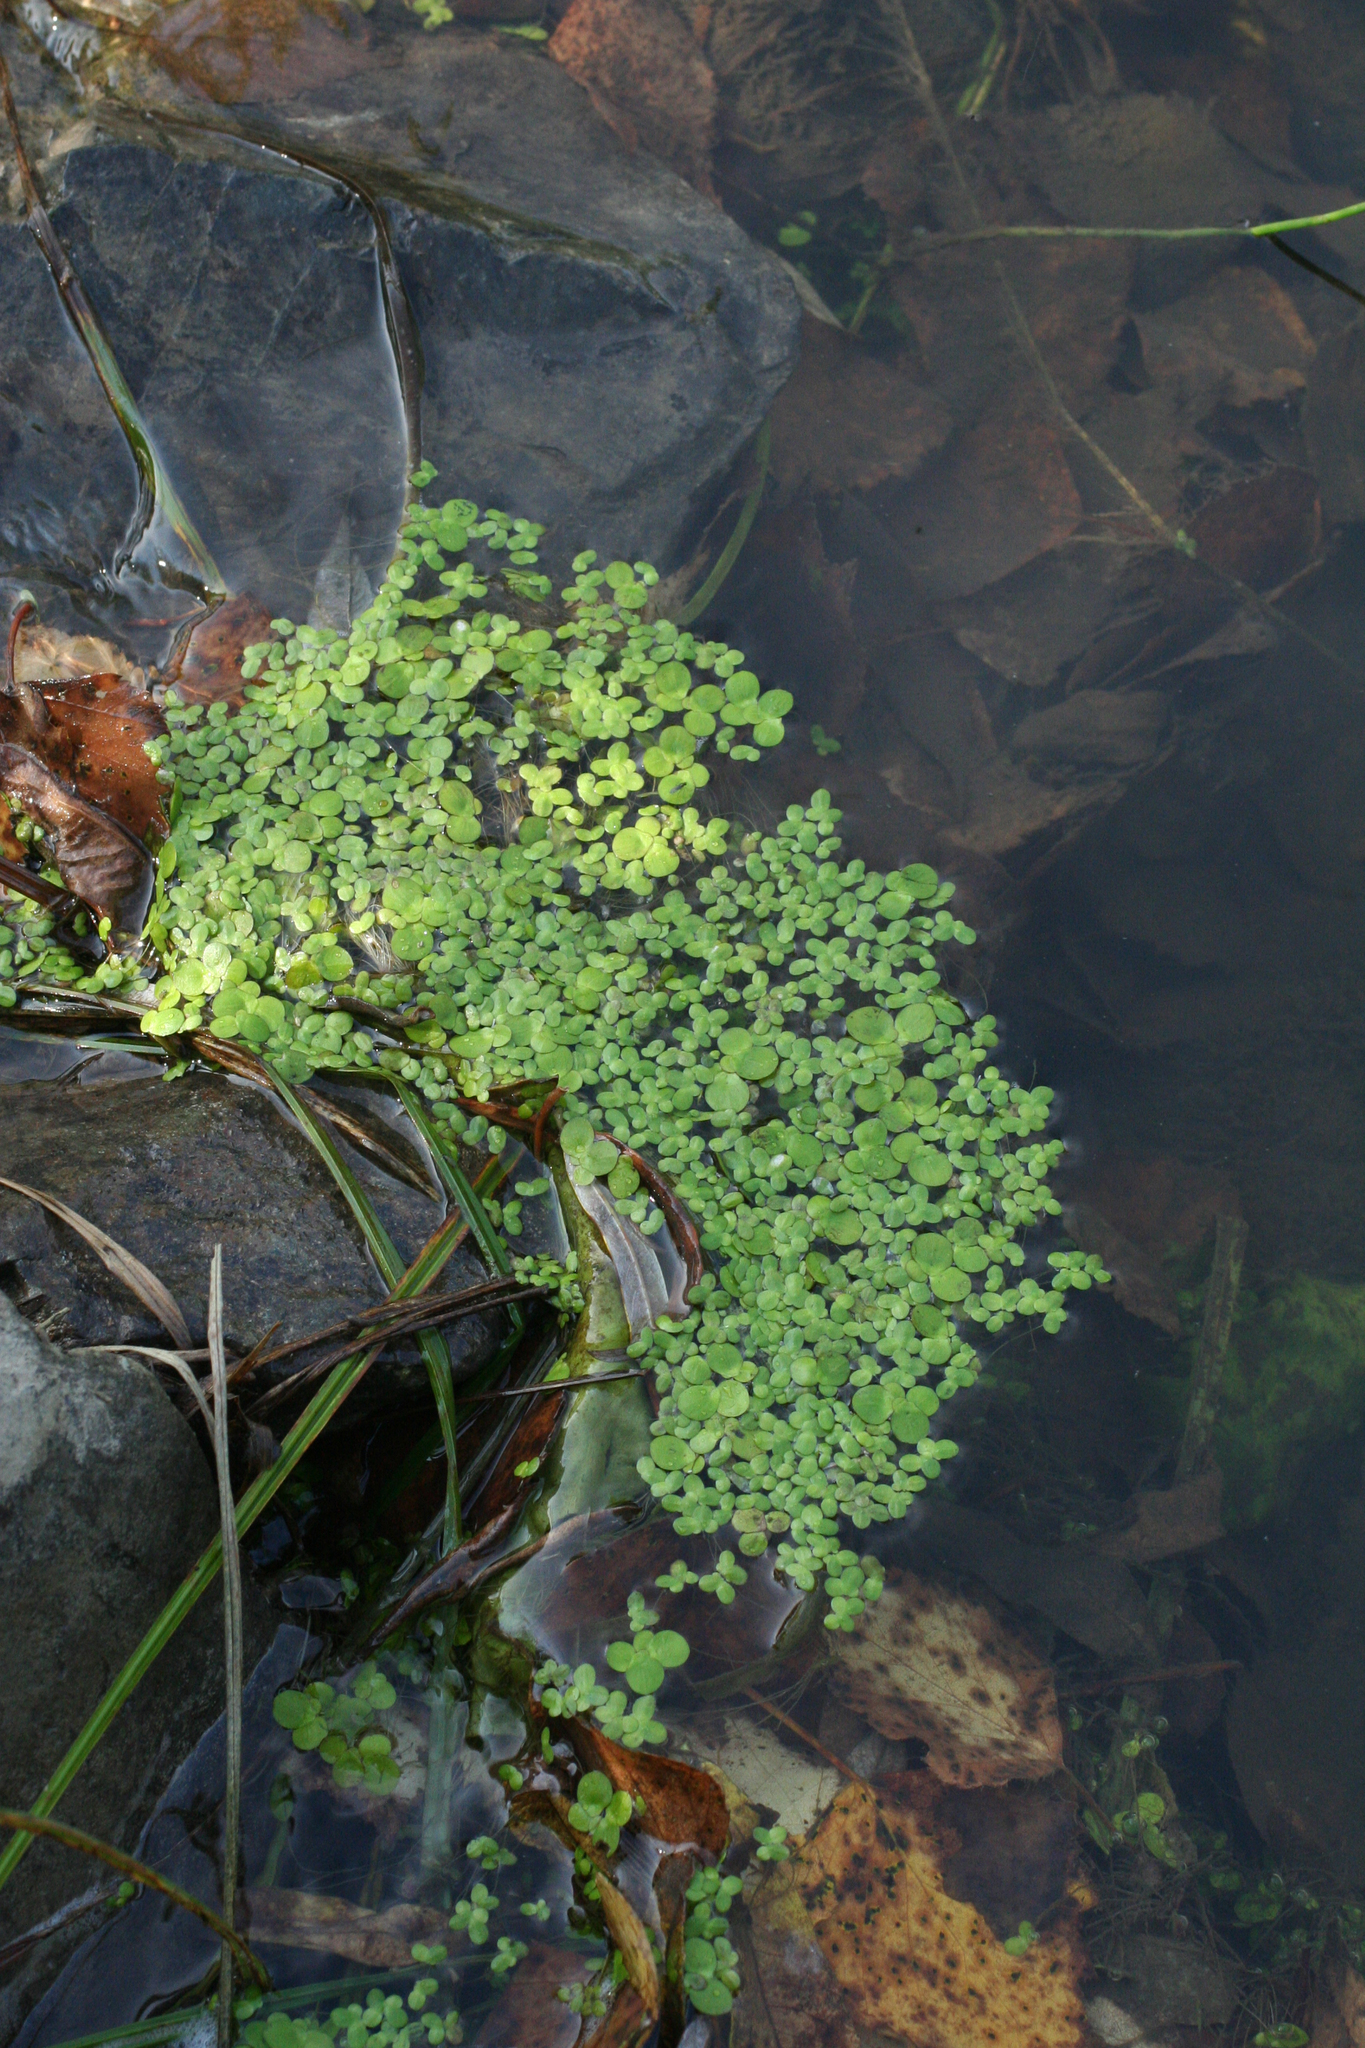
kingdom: Plantae
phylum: Tracheophyta
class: Liliopsida
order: Alismatales
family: Araceae
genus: Lemna
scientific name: Lemna minor
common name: Common duckweed
